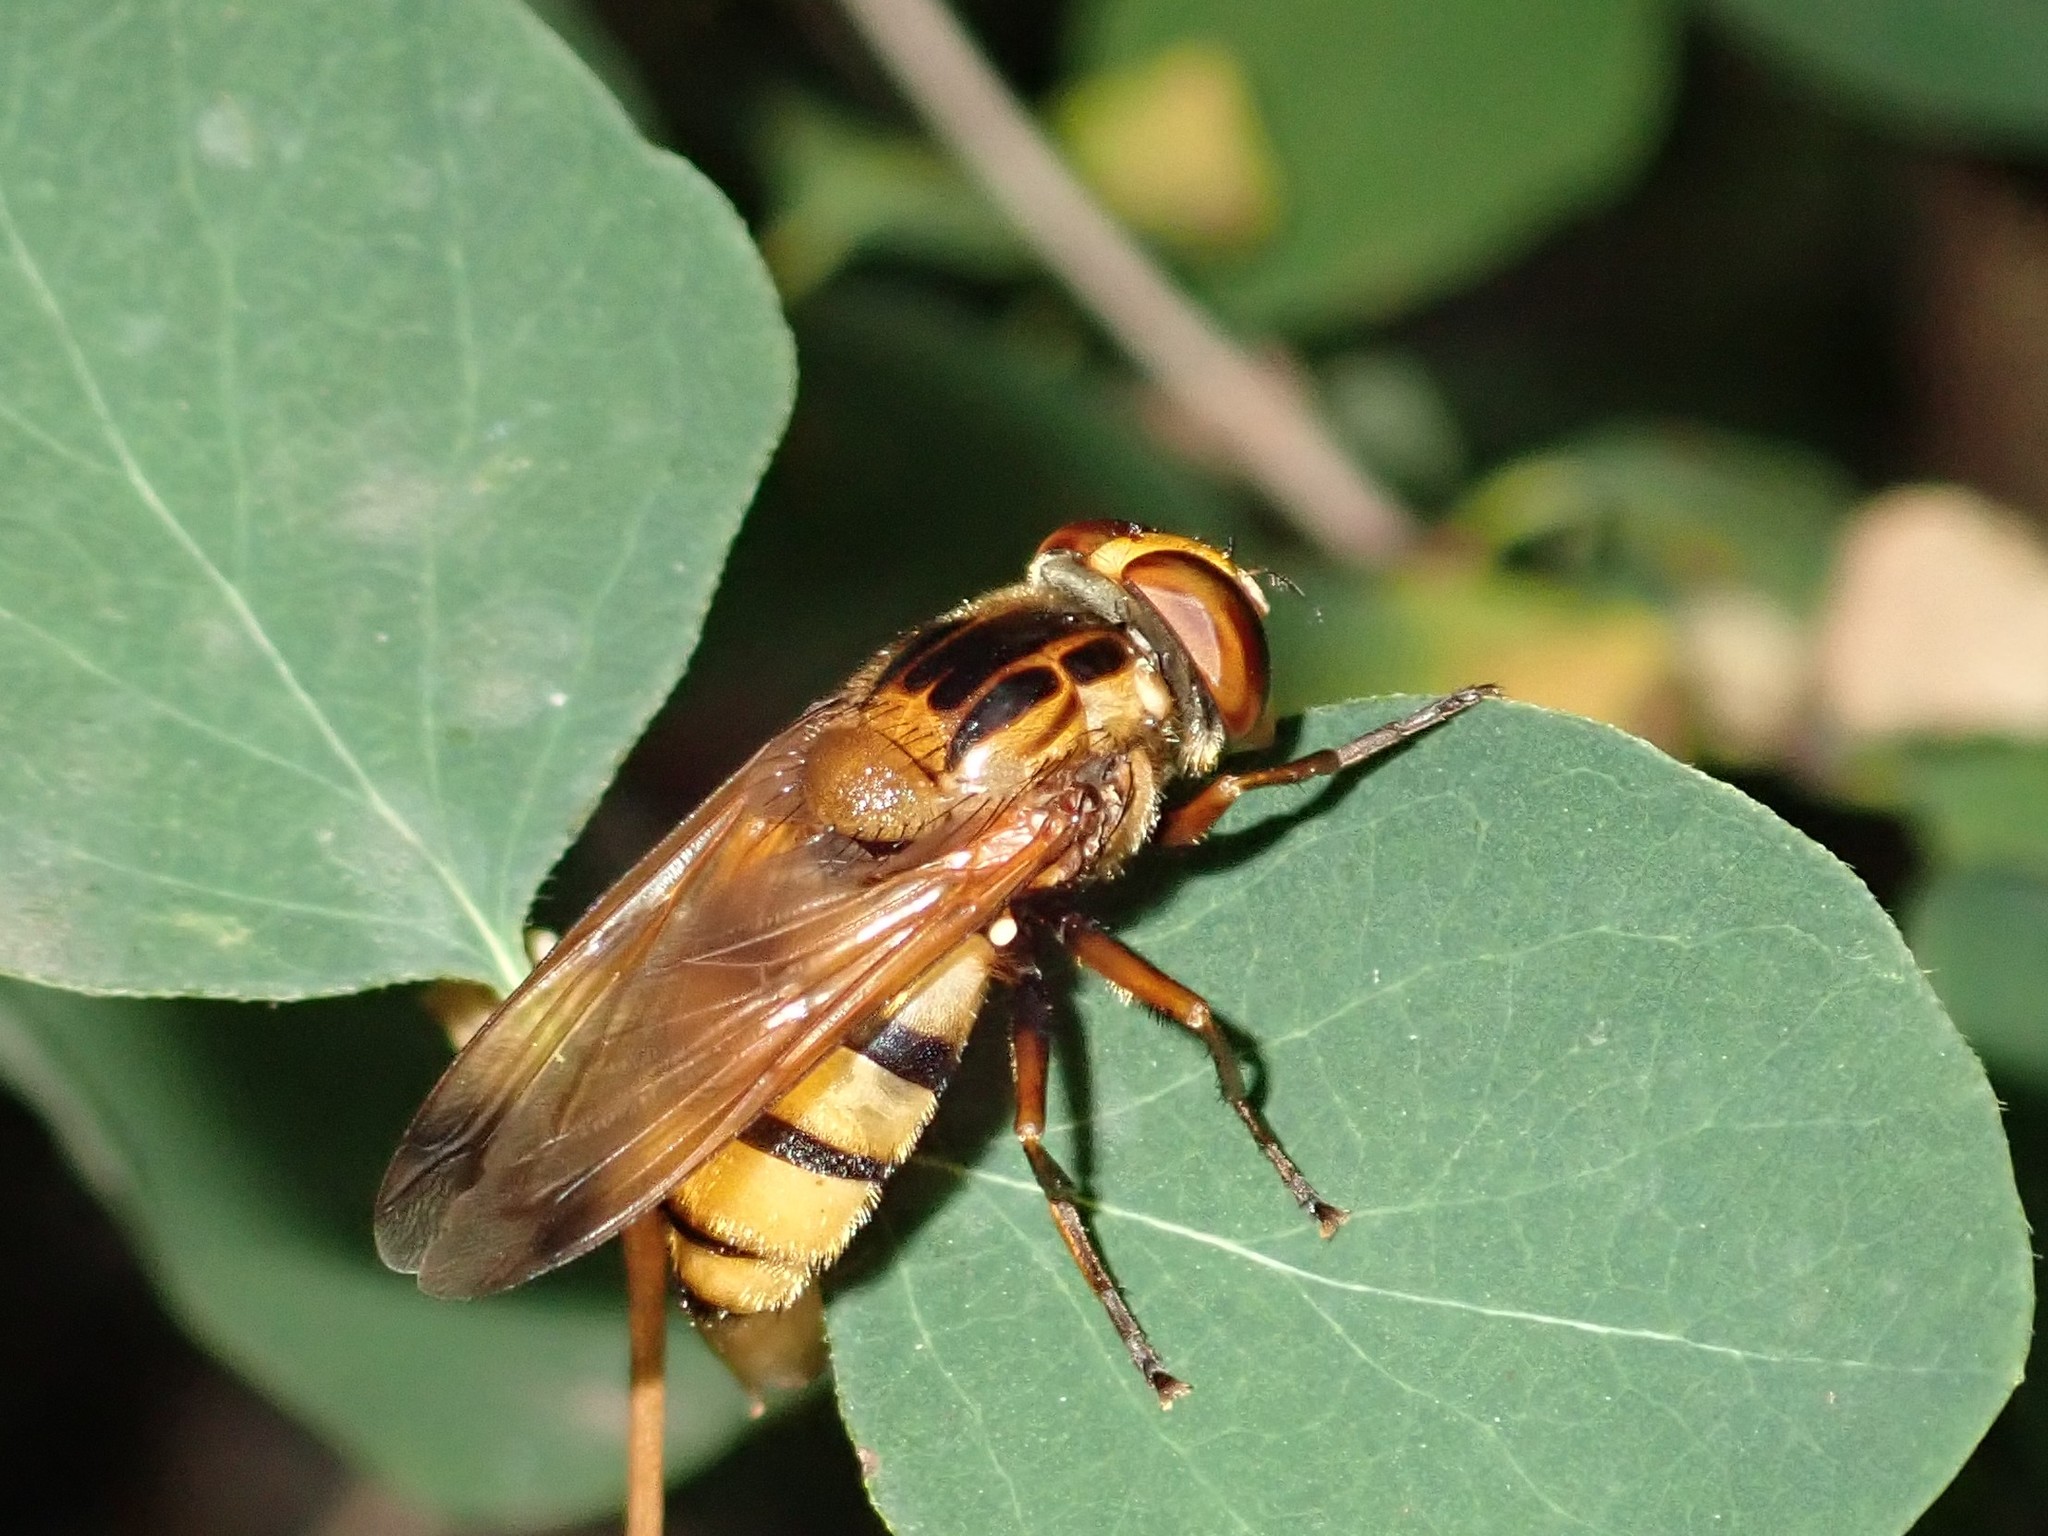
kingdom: Animalia
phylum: Arthropoda
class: Insecta
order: Diptera
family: Syrphidae
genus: Volucella
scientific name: Volucella inanis
